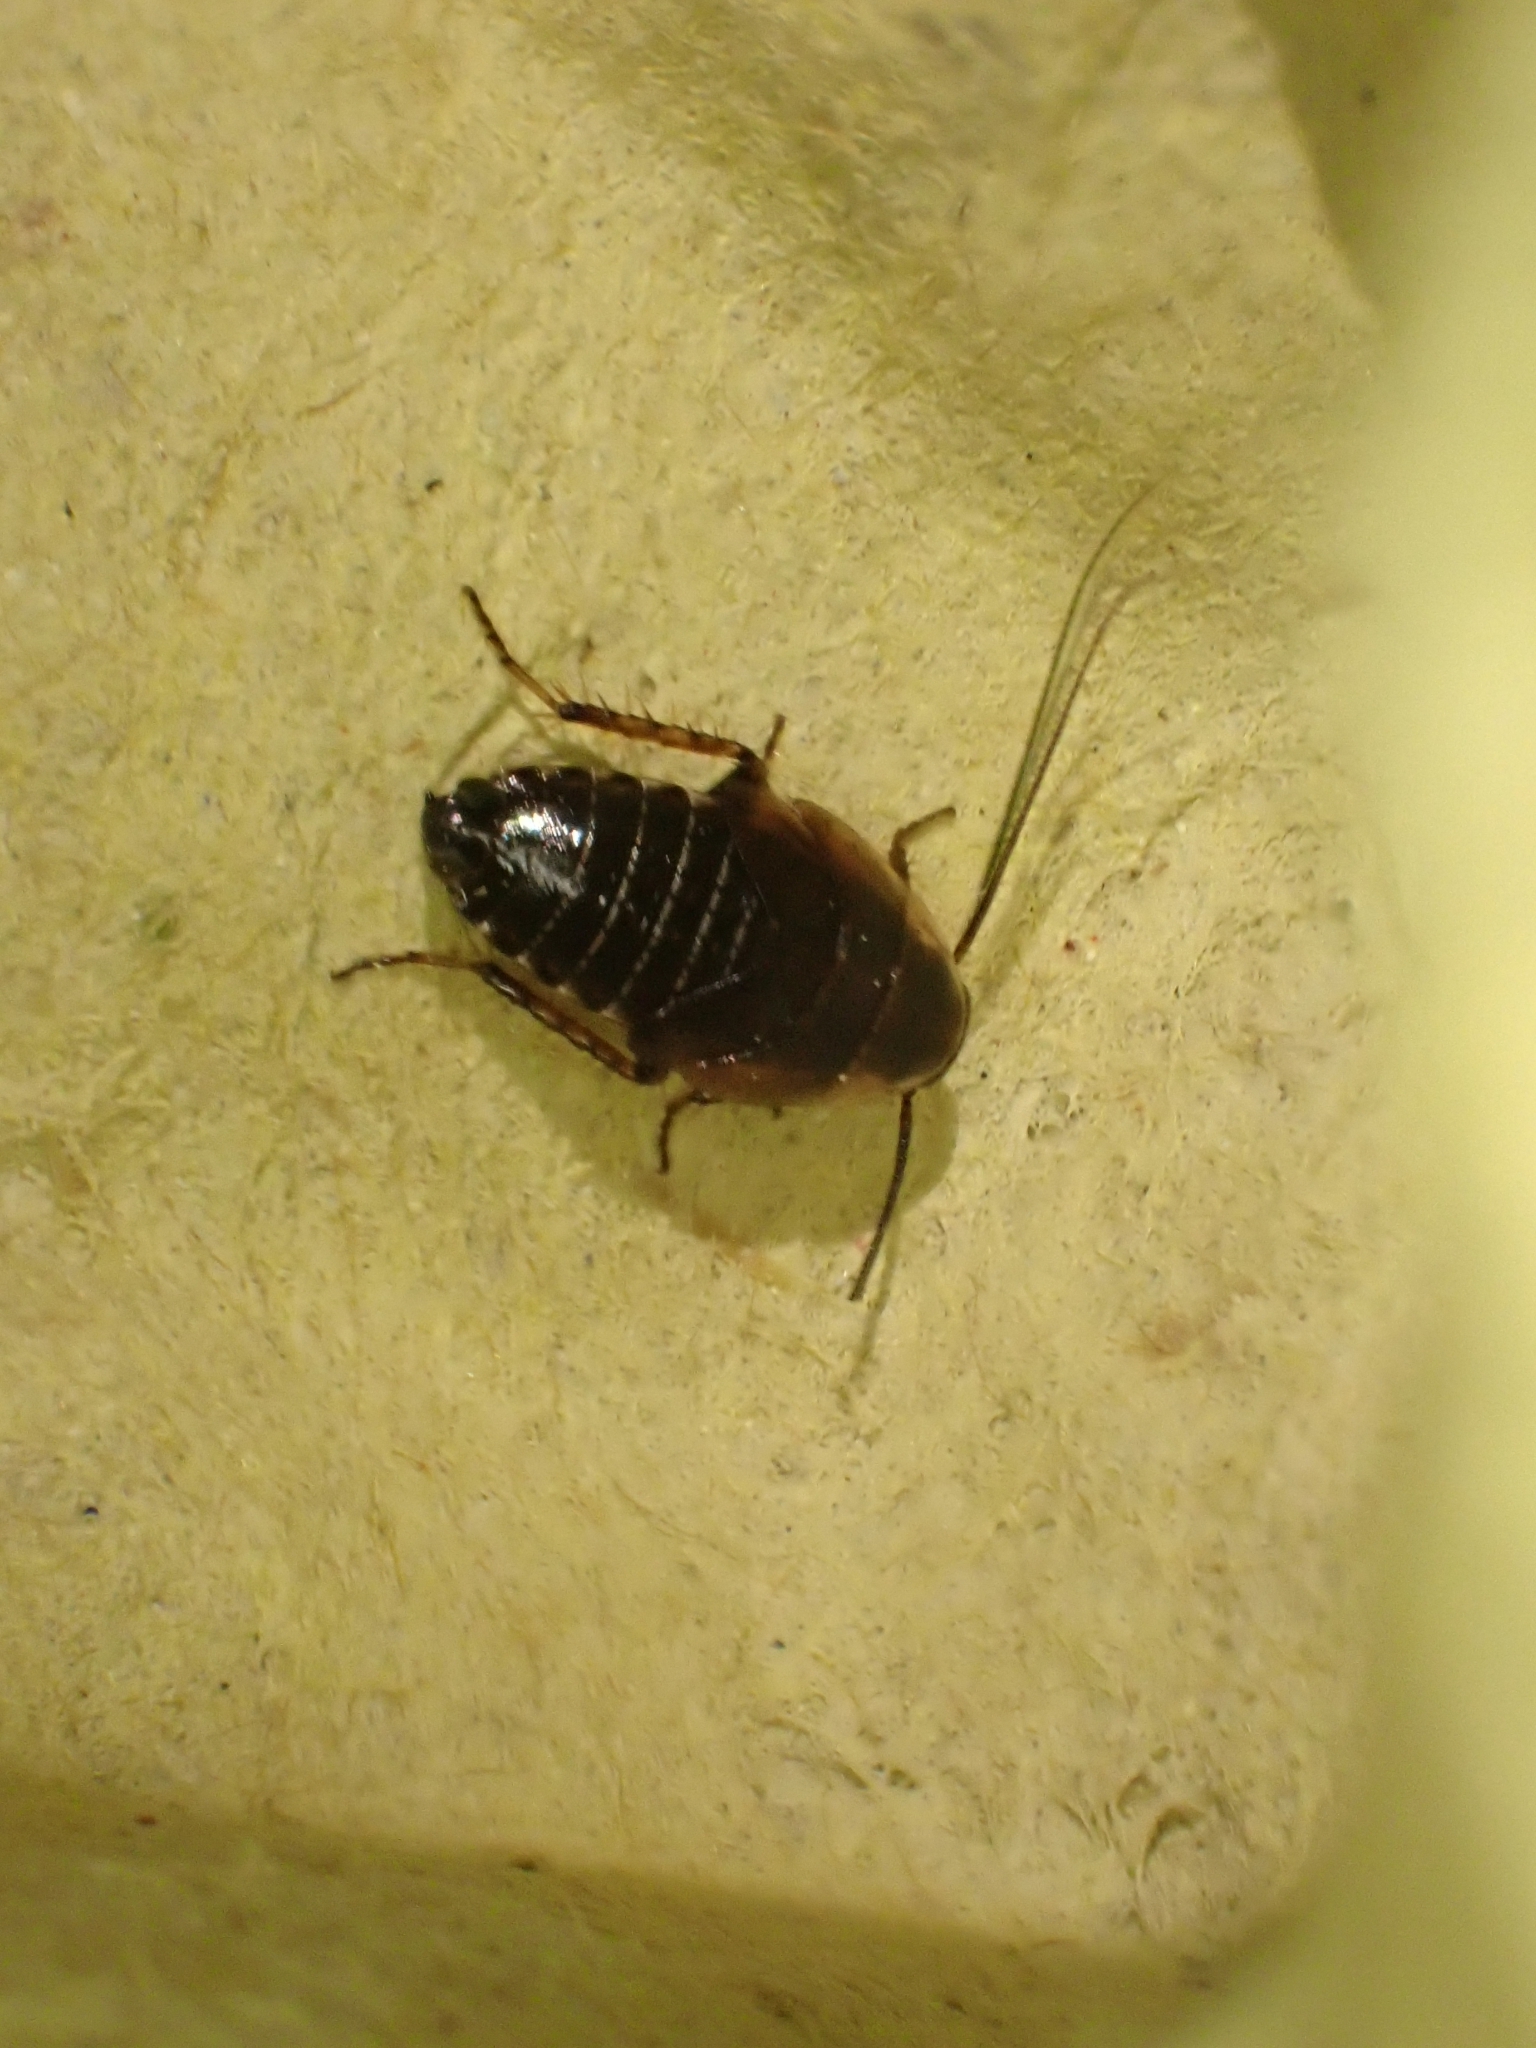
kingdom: Animalia
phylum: Arthropoda
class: Insecta
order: Blattodea
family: Ectobiidae
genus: Ectobius
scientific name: Ectobius sylvestris
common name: Forest cockroach
